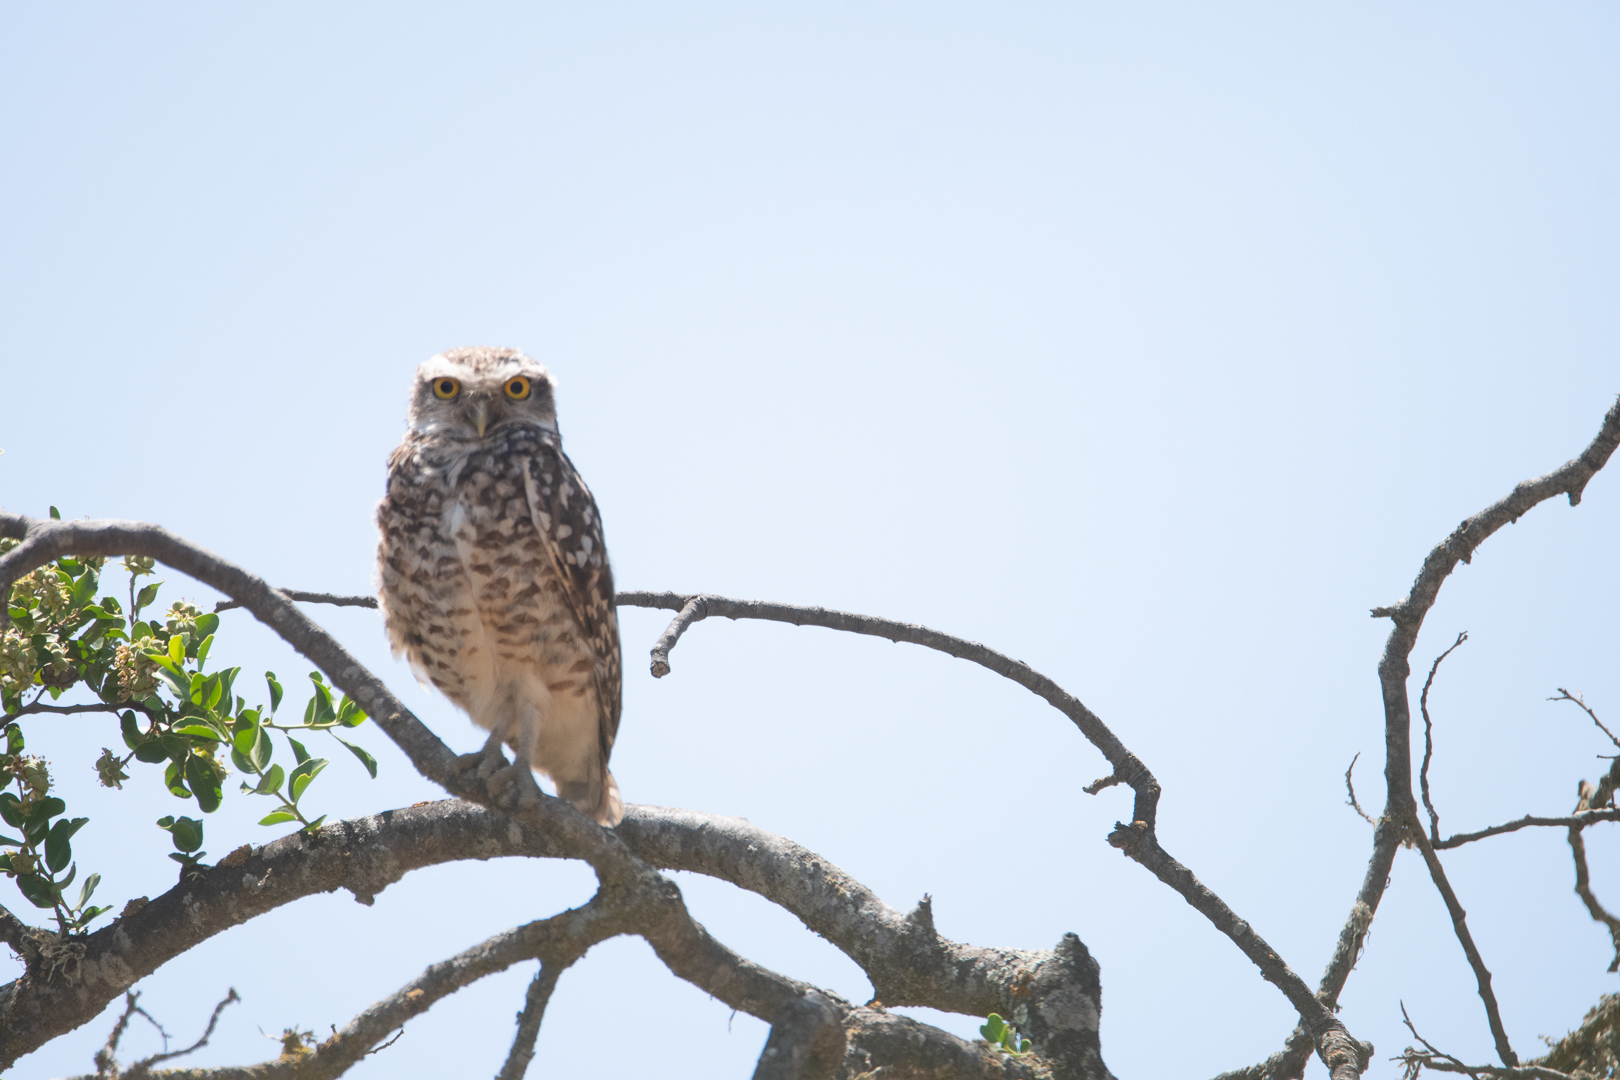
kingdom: Animalia
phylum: Chordata
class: Aves
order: Strigiformes
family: Strigidae
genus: Athene
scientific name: Athene cunicularia
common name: Burrowing owl
